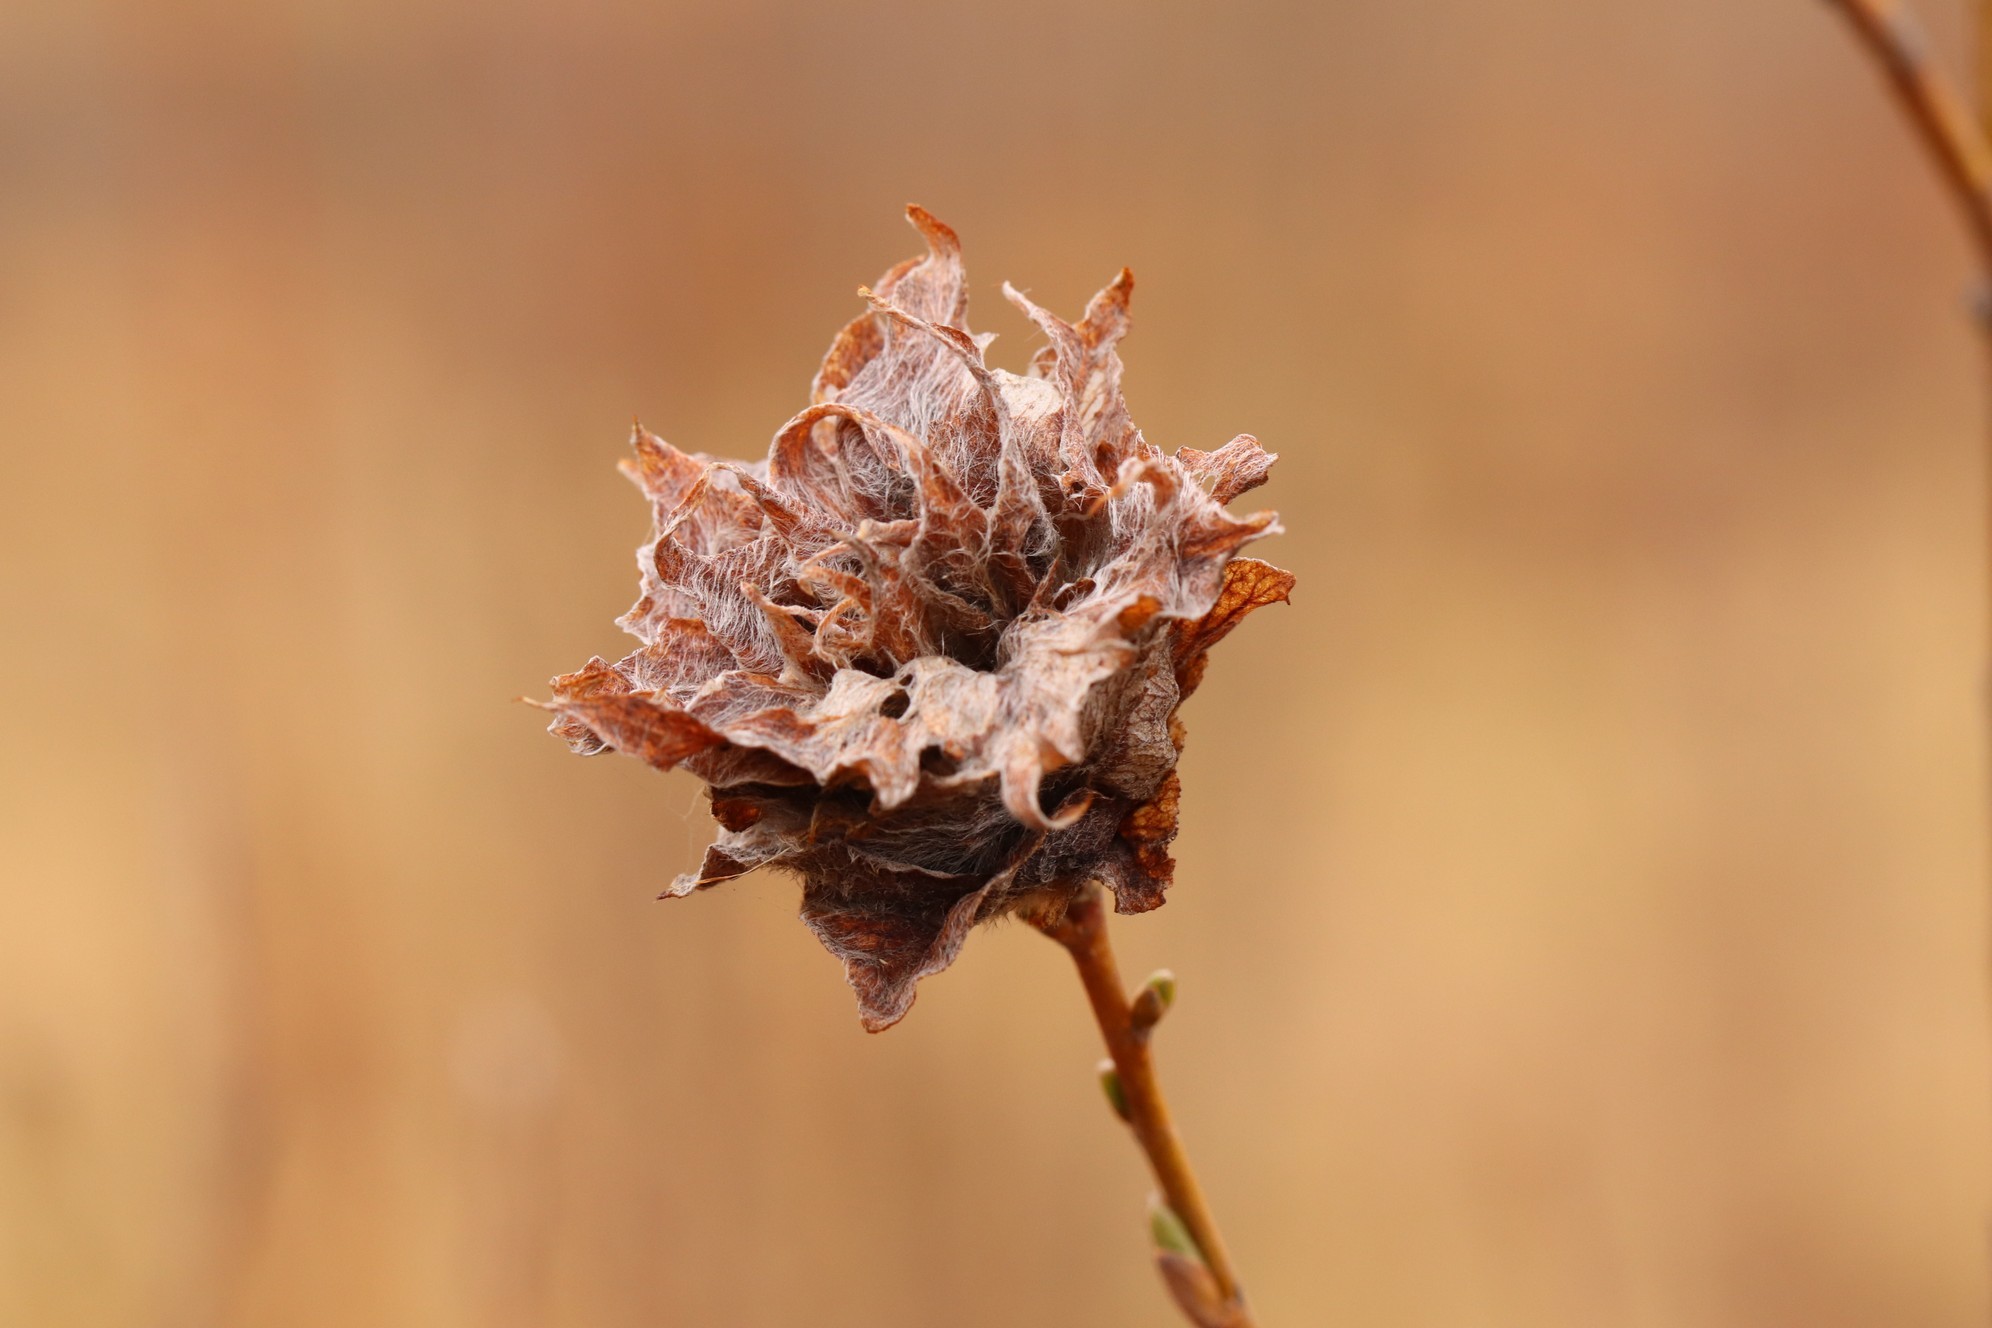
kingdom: Animalia
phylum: Arthropoda
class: Insecta
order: Diptera
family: Cecidomyiidae
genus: Rabdophaga
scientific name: Rabdophaga rosaria
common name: Willow rose gall midge
